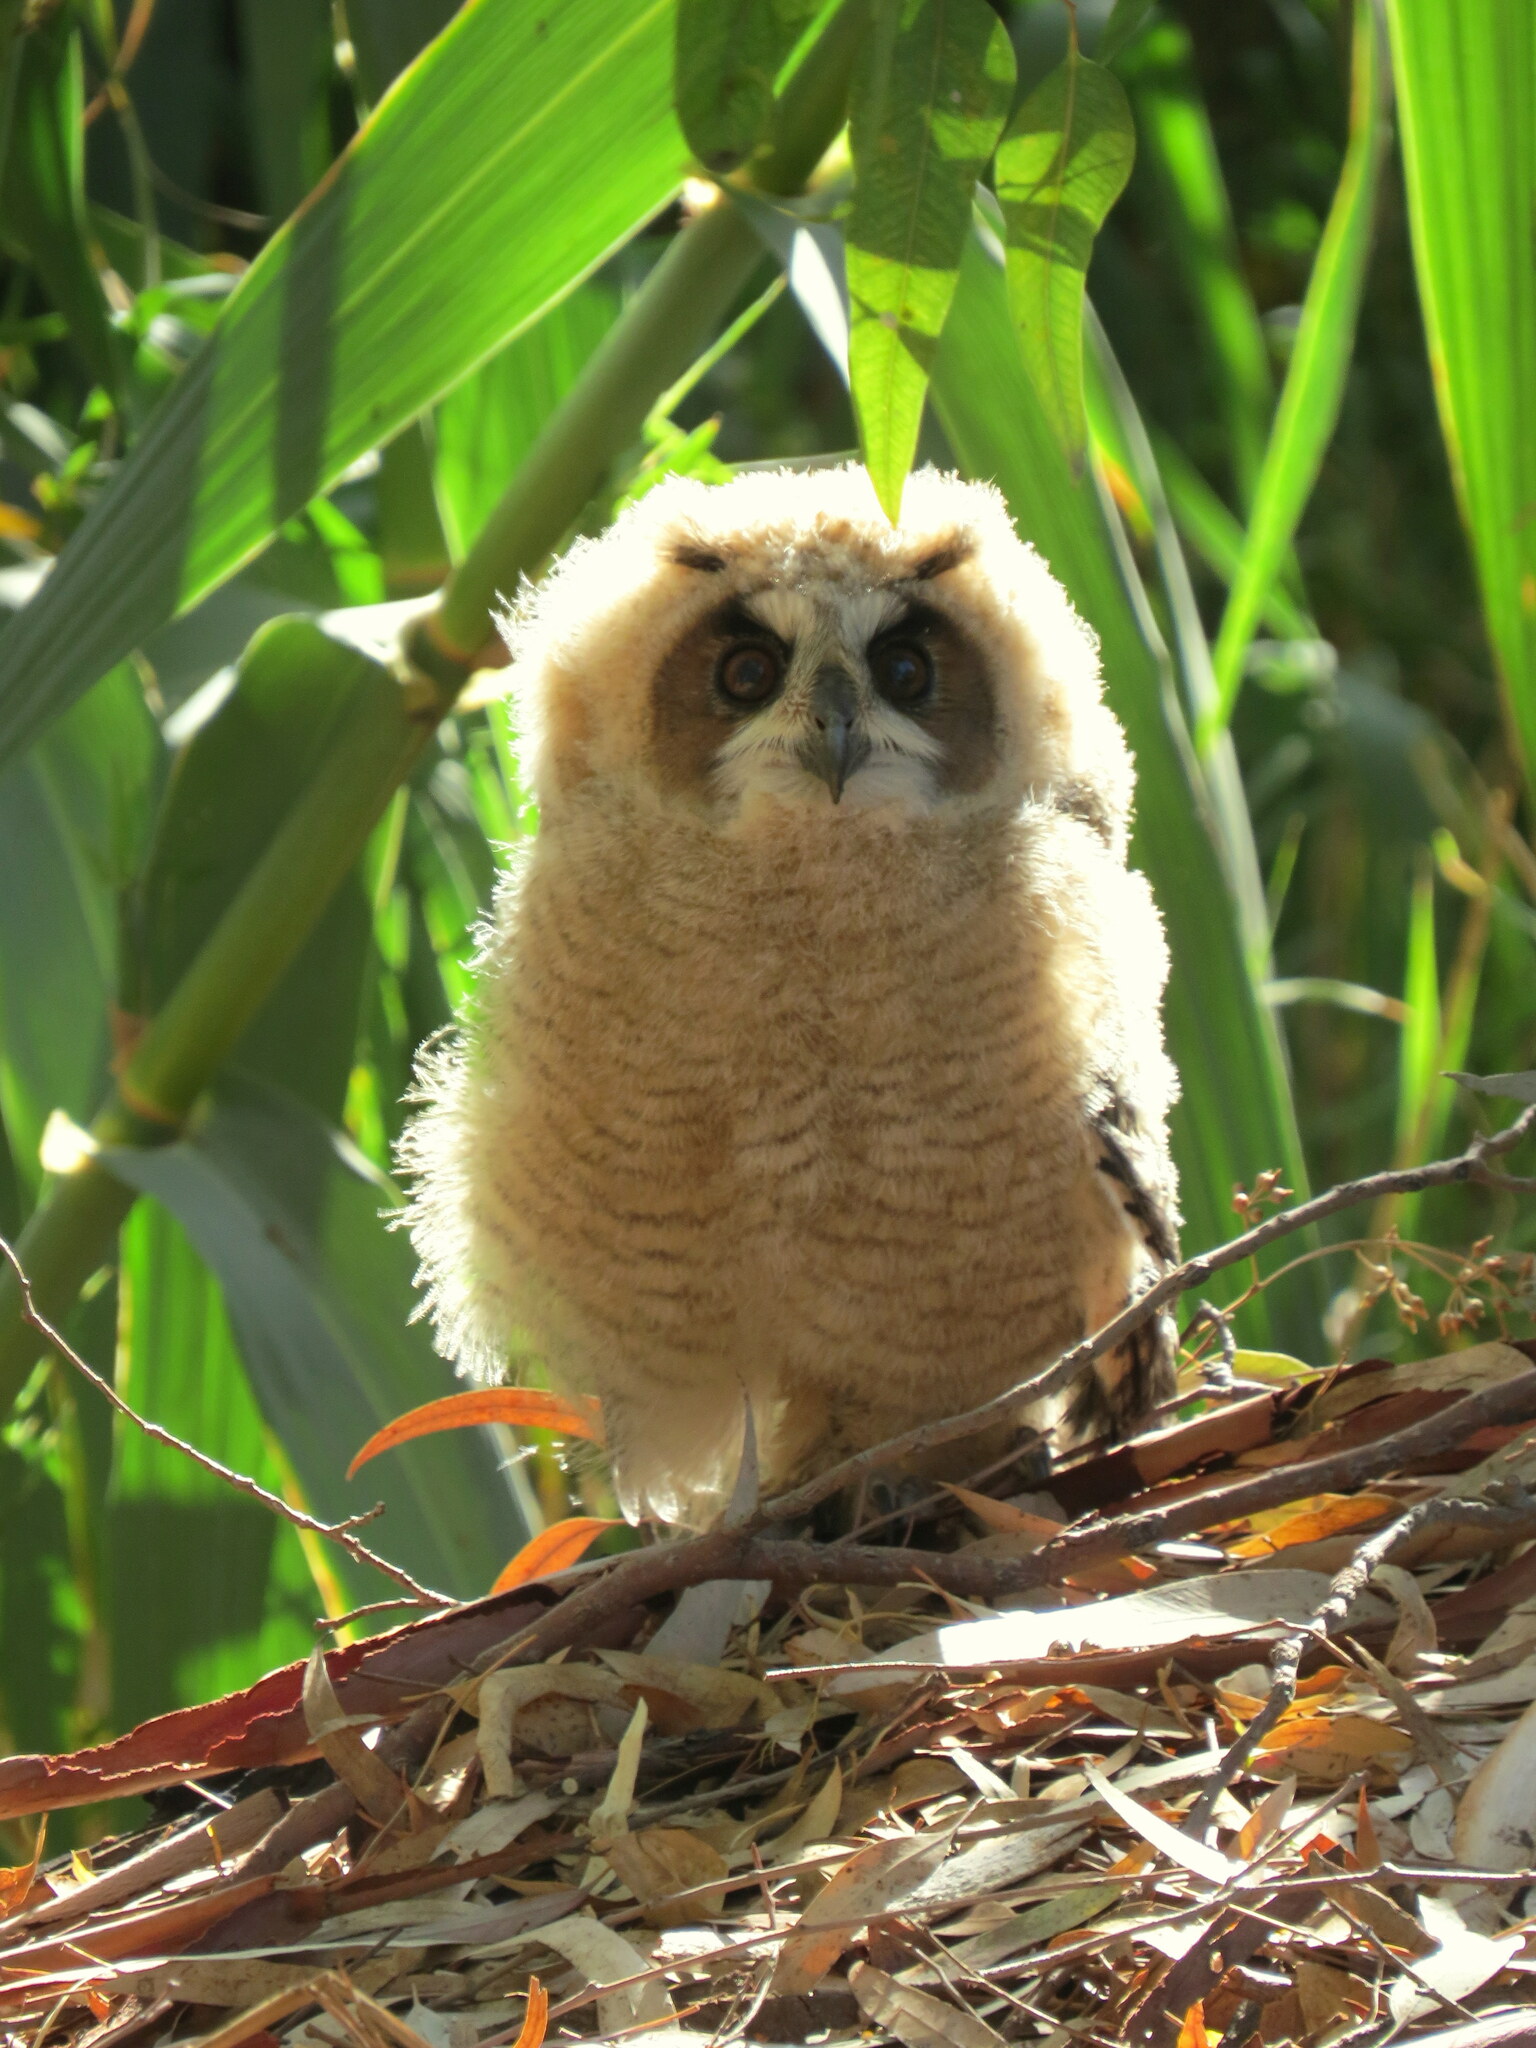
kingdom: Animalia
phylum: Chordata
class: Aves
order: Strigiformes
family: Strigidae
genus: Pseudoscops
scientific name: Pseudoscops clamator
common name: Striped owl
